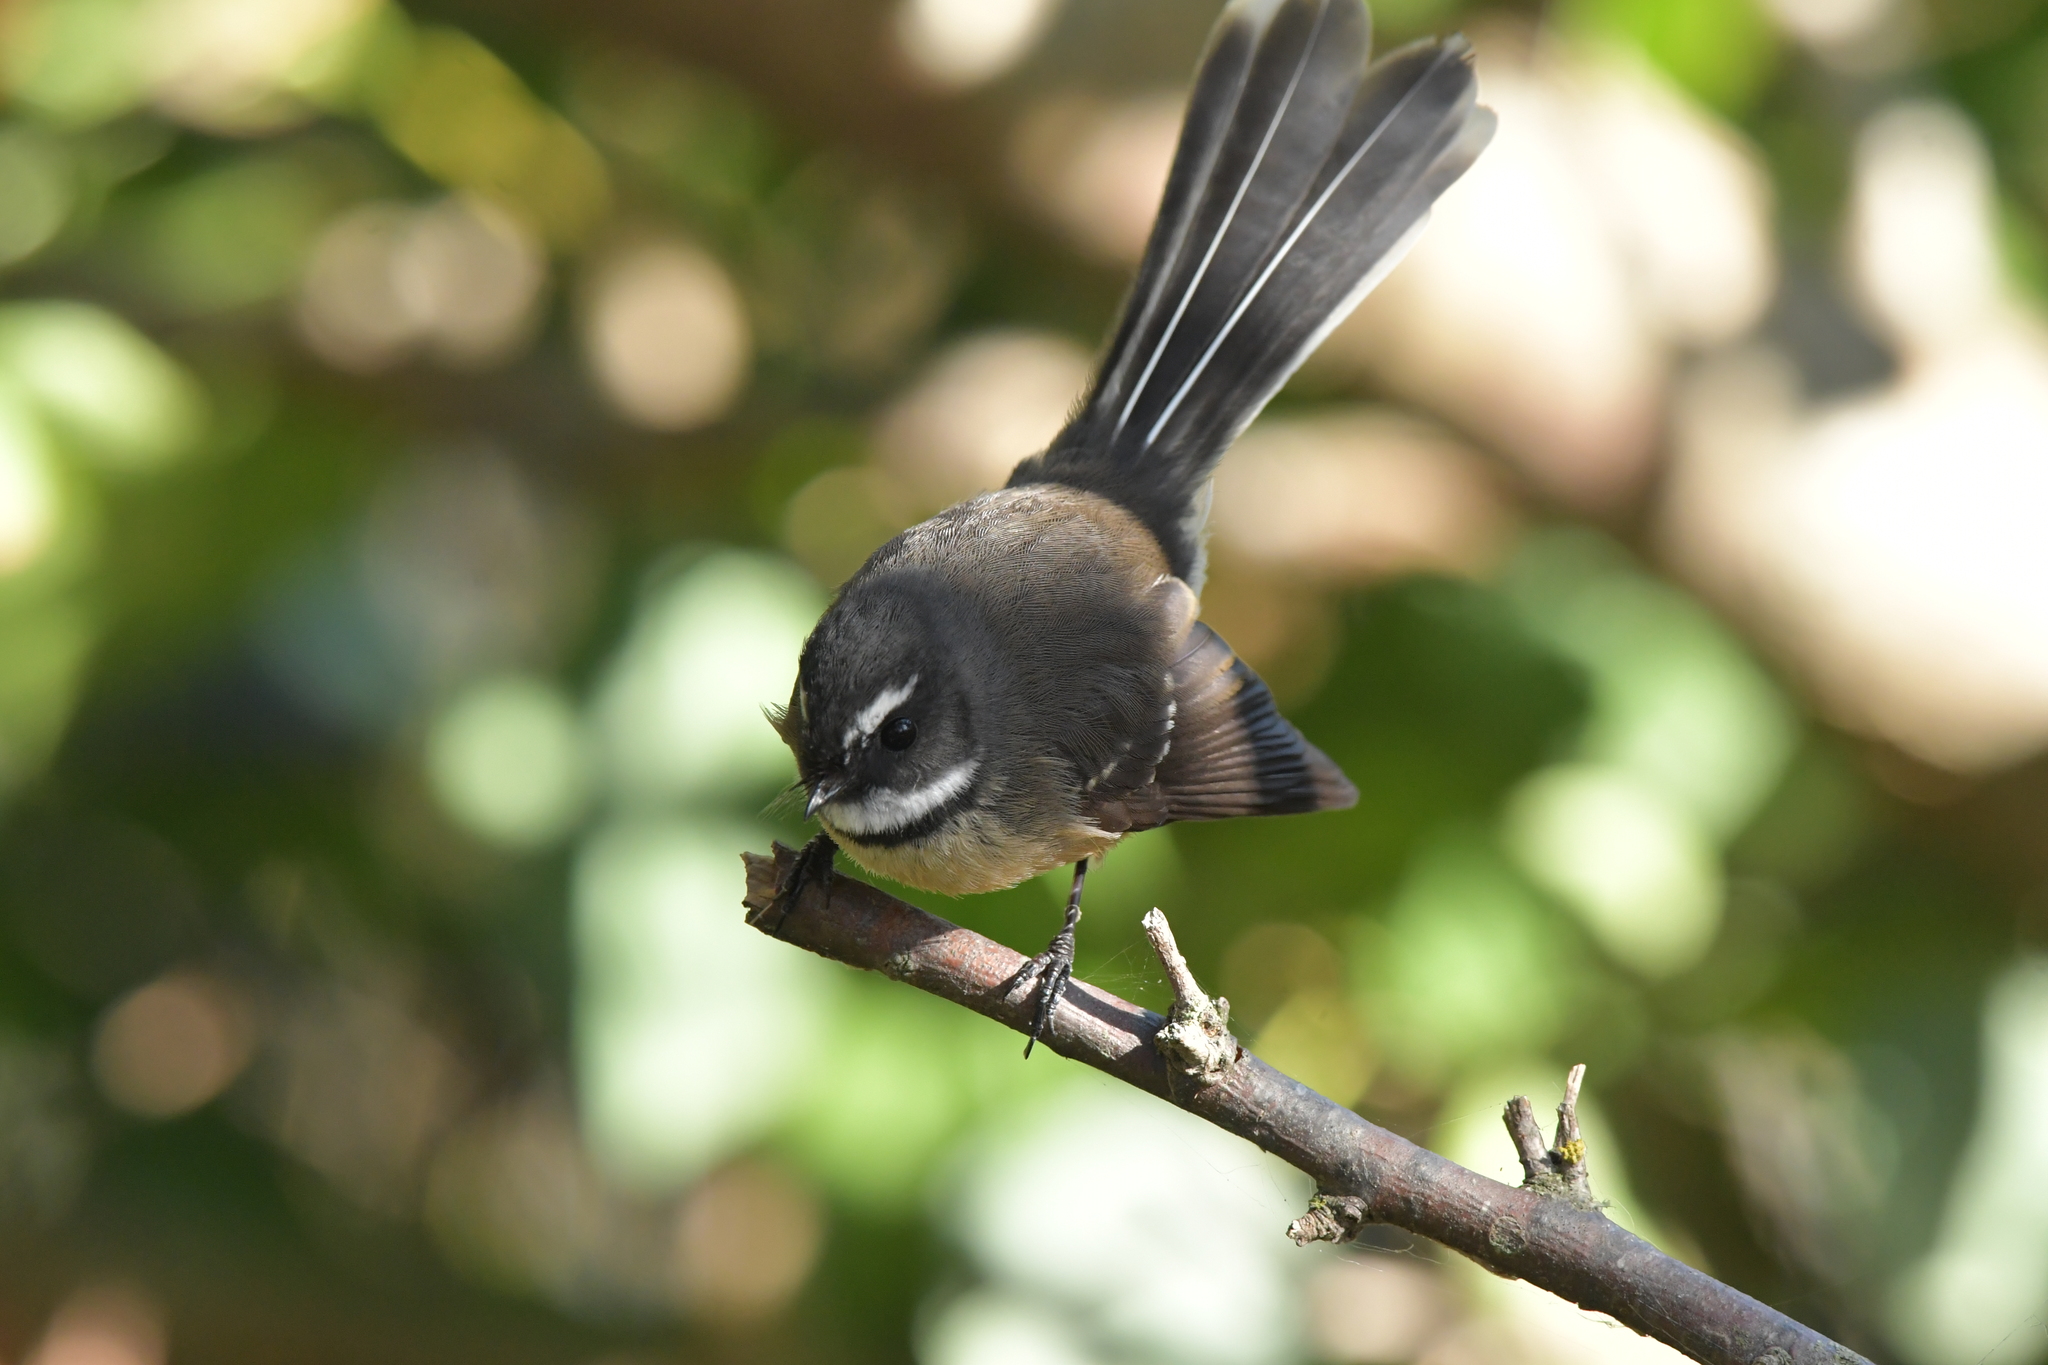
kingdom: Animalia
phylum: Chordata
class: Aves
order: Passeriformes
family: Rhipiduridae
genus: Rhipidura
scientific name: Rhipidura fuliginosa
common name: New zealand fantail
